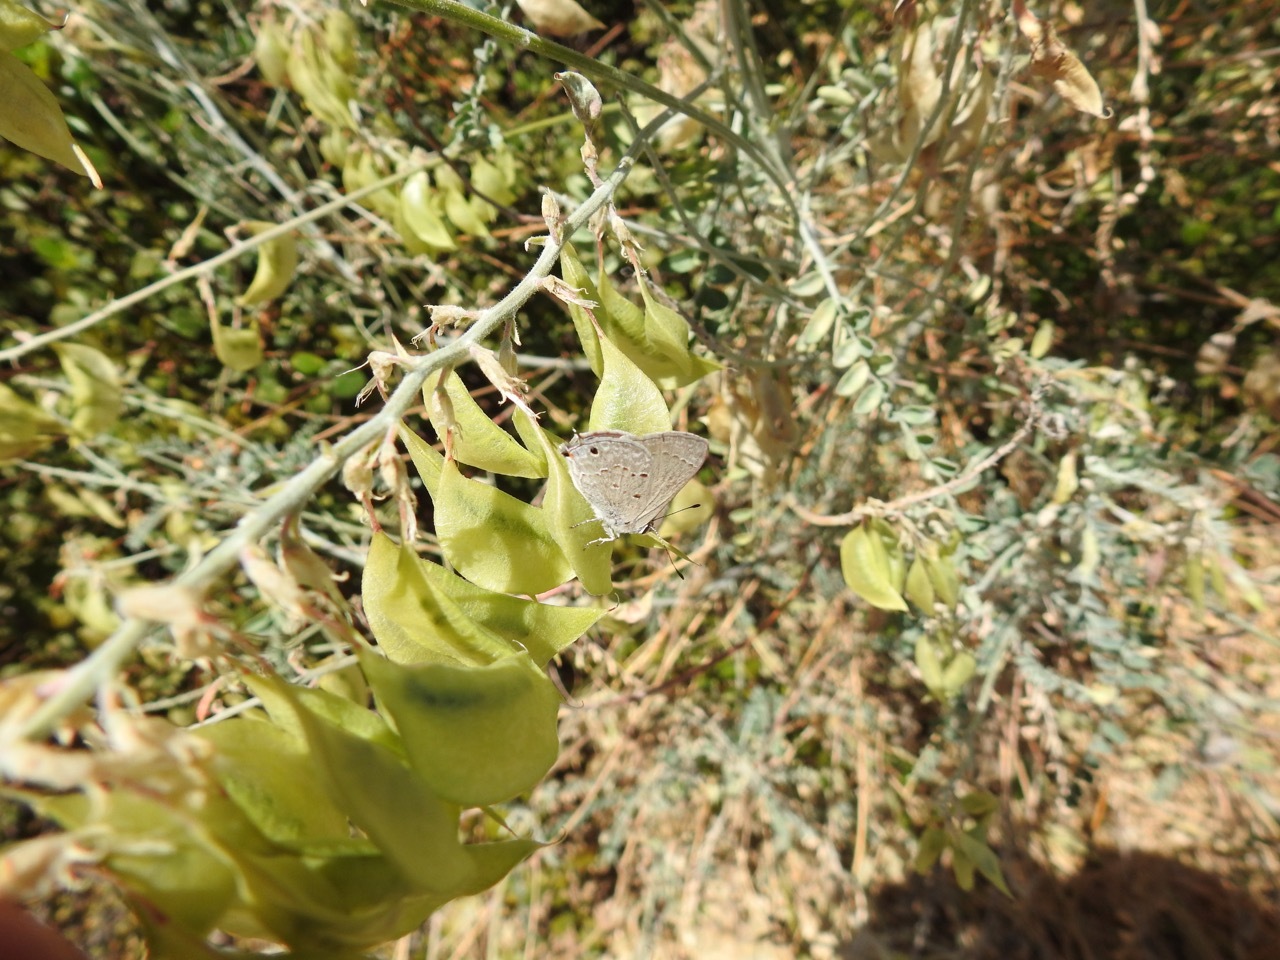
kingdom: Animalia
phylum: Arthropoda
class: Insecta
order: Lepidoptera
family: Lycaenidae
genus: Callicista
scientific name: Callicista columella
